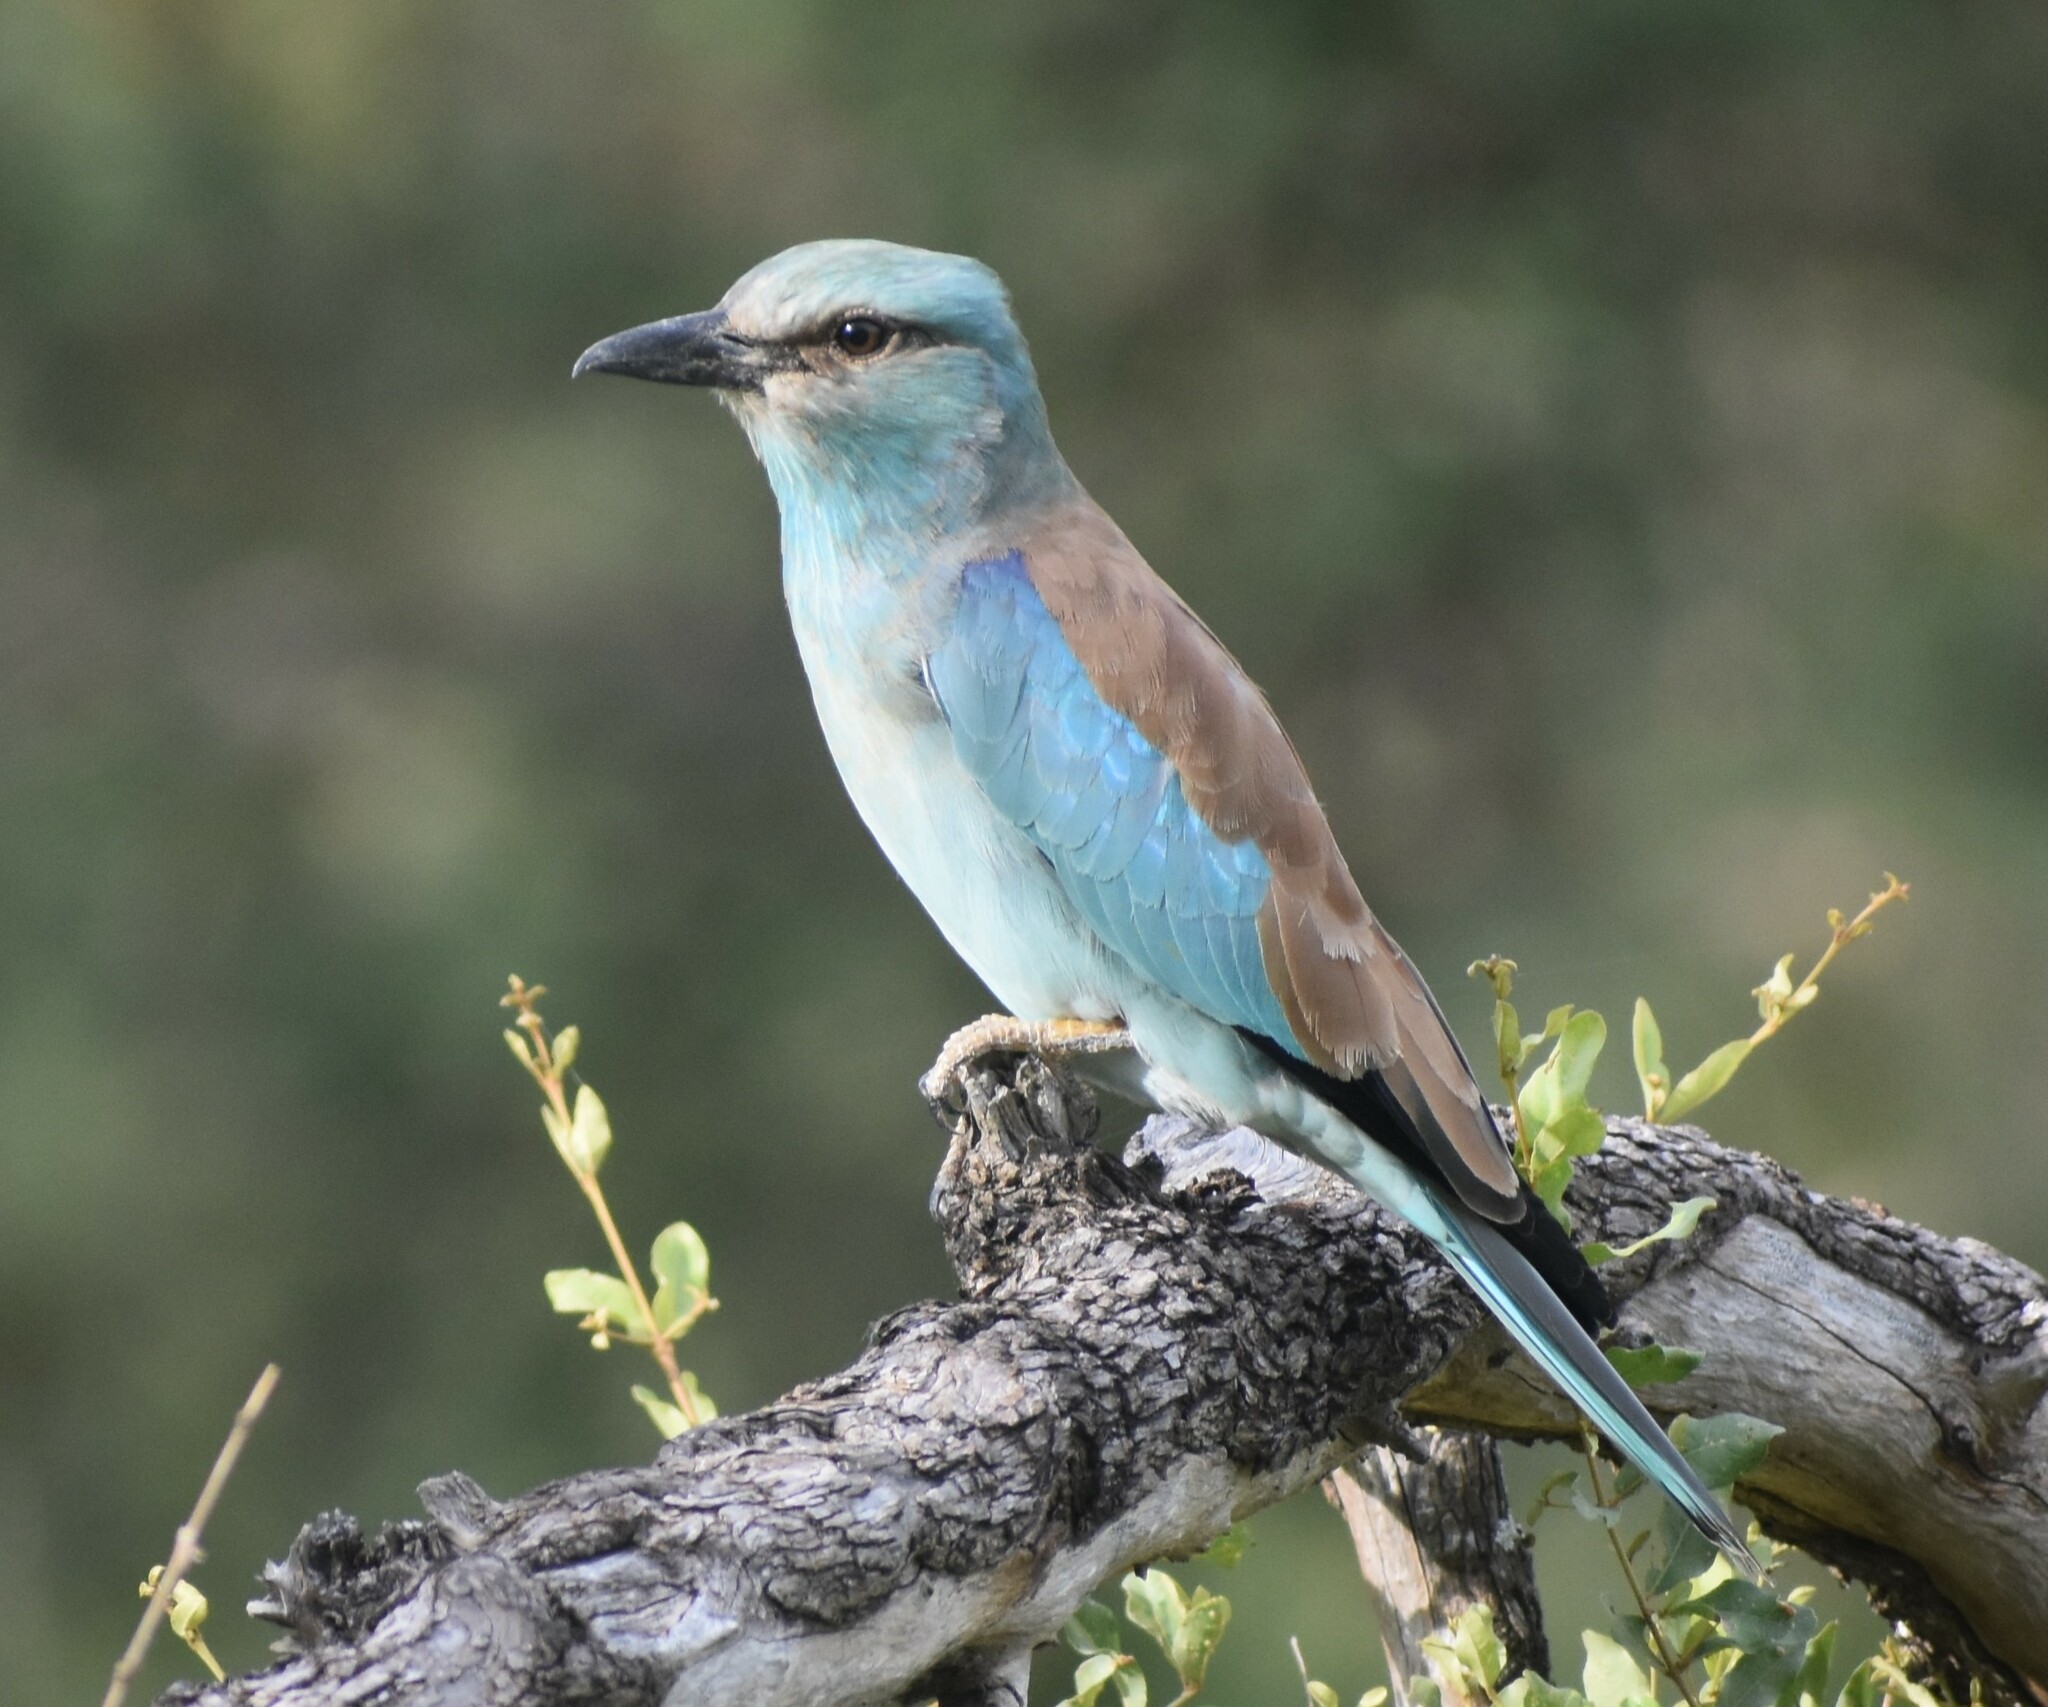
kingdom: Animalia
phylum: Chordata
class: Aves
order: Coraciiformes
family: Coraciidae
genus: Coracias
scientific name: Coracias garrulus
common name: European roller
